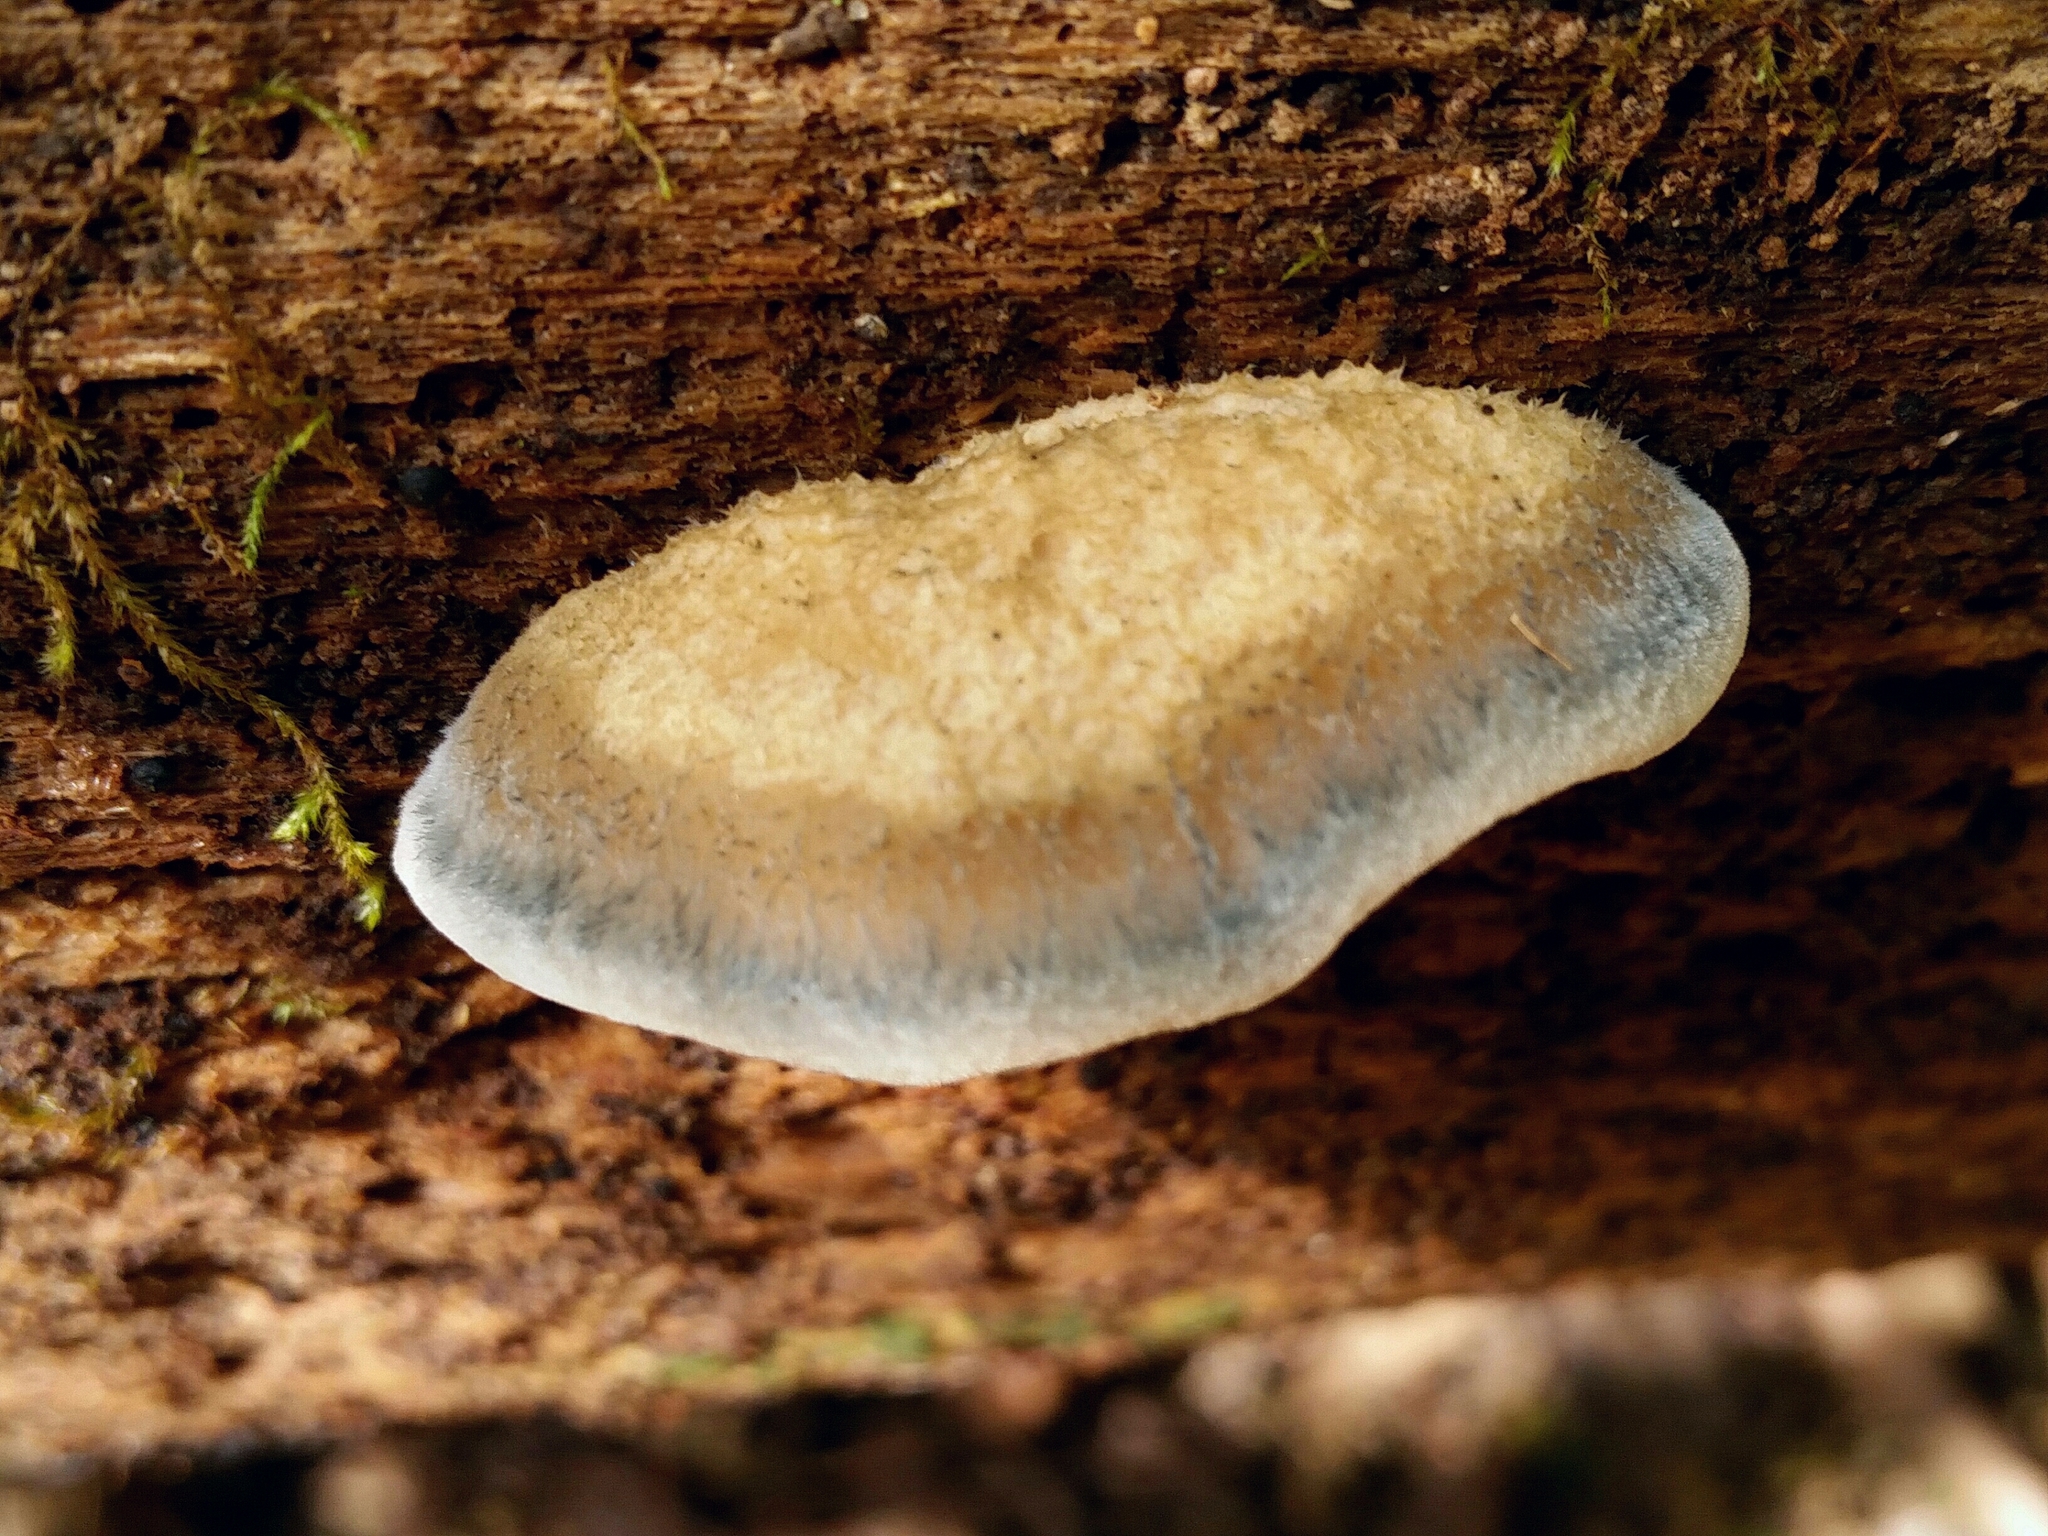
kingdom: Fungi
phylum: Basidiomycota
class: Agaricomycetes
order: Polyporales
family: Polyporaceae
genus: Cyanosporus
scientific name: Cyanosporus caesius
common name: Blue cheese polypore
